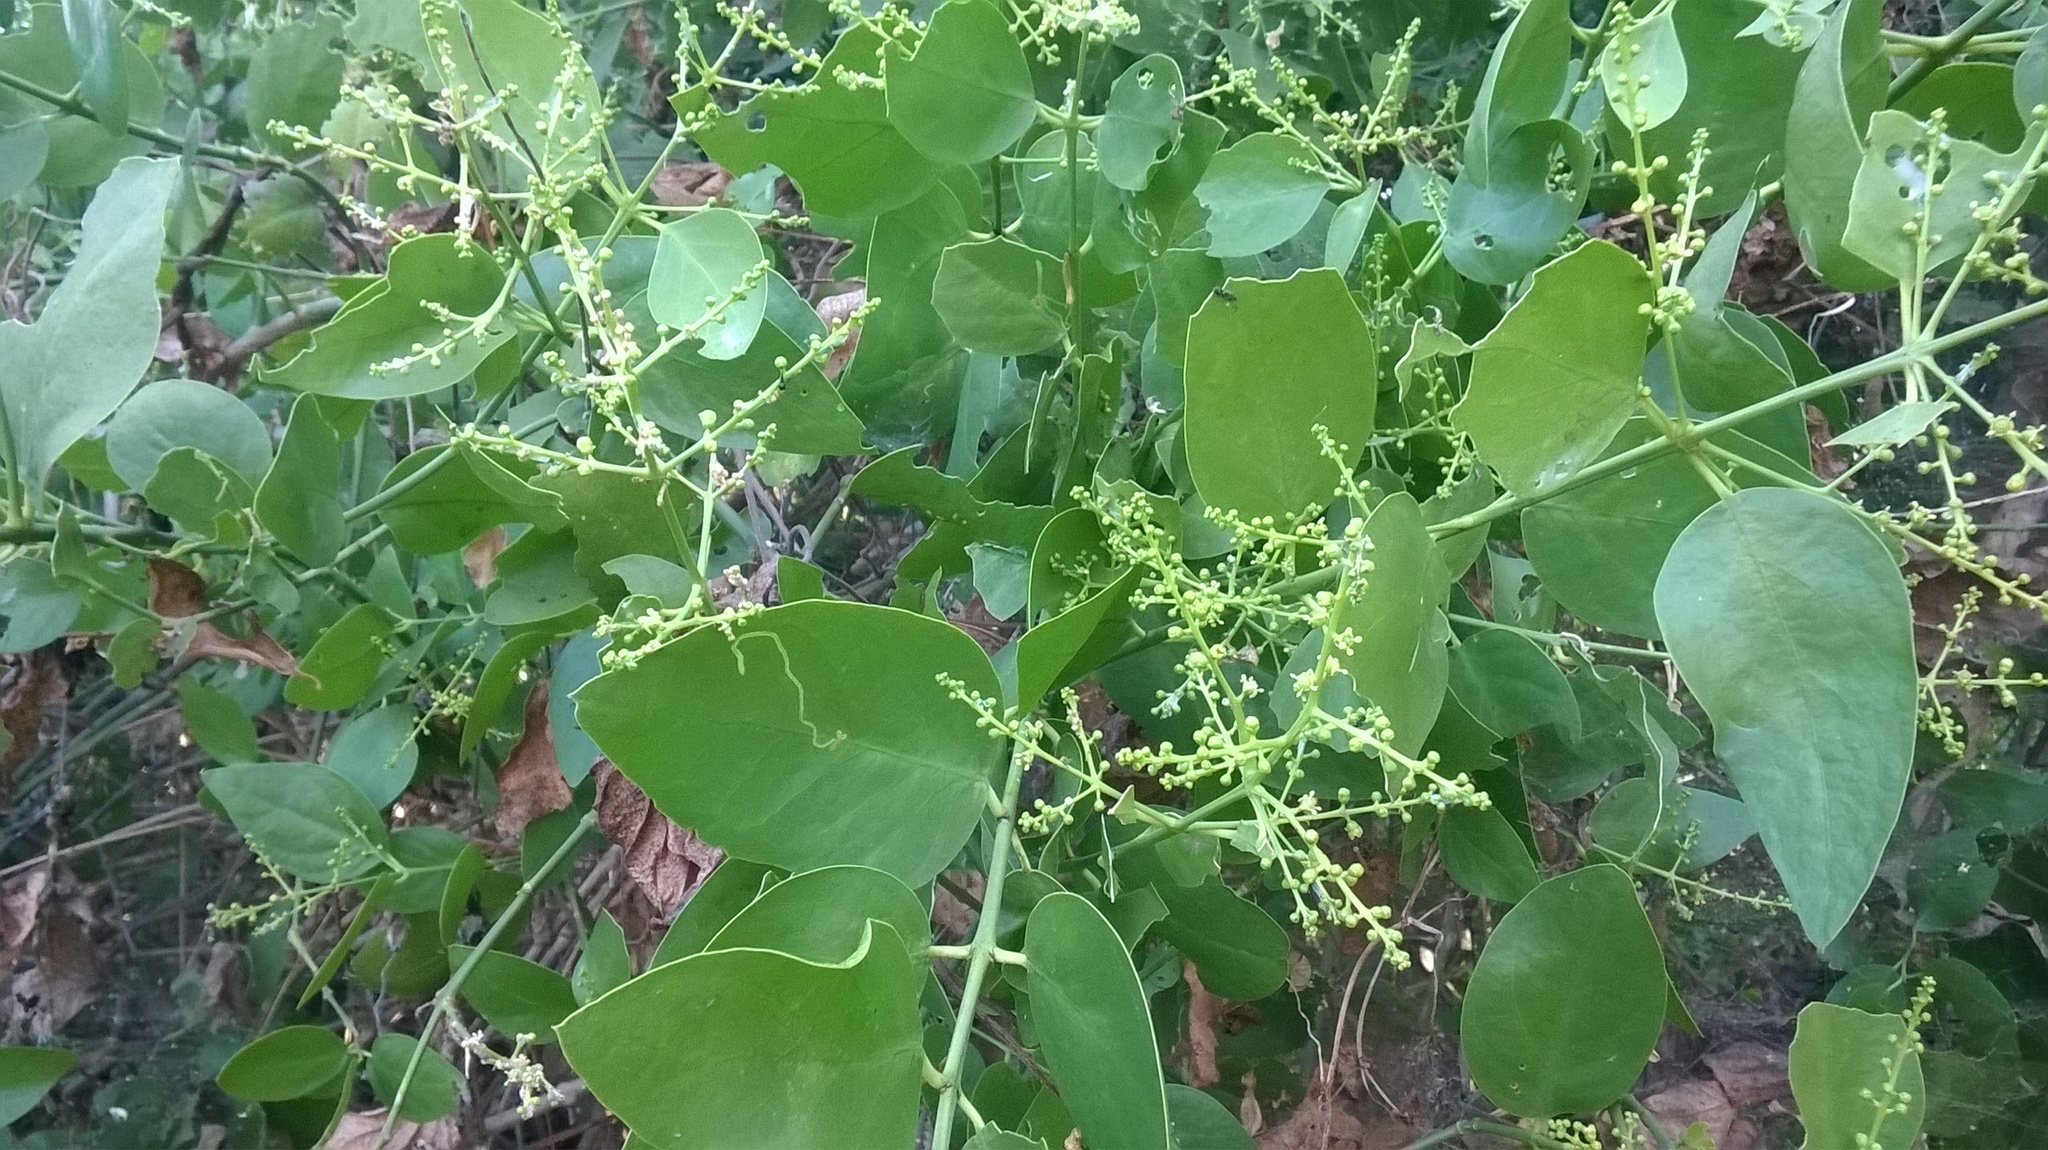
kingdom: Plantae
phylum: Tracheophyta
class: Magnoliopsida
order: Brassicales
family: Salvadoraceae
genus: Salvadora
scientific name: Salvadora persica
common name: Toothbrushtree
